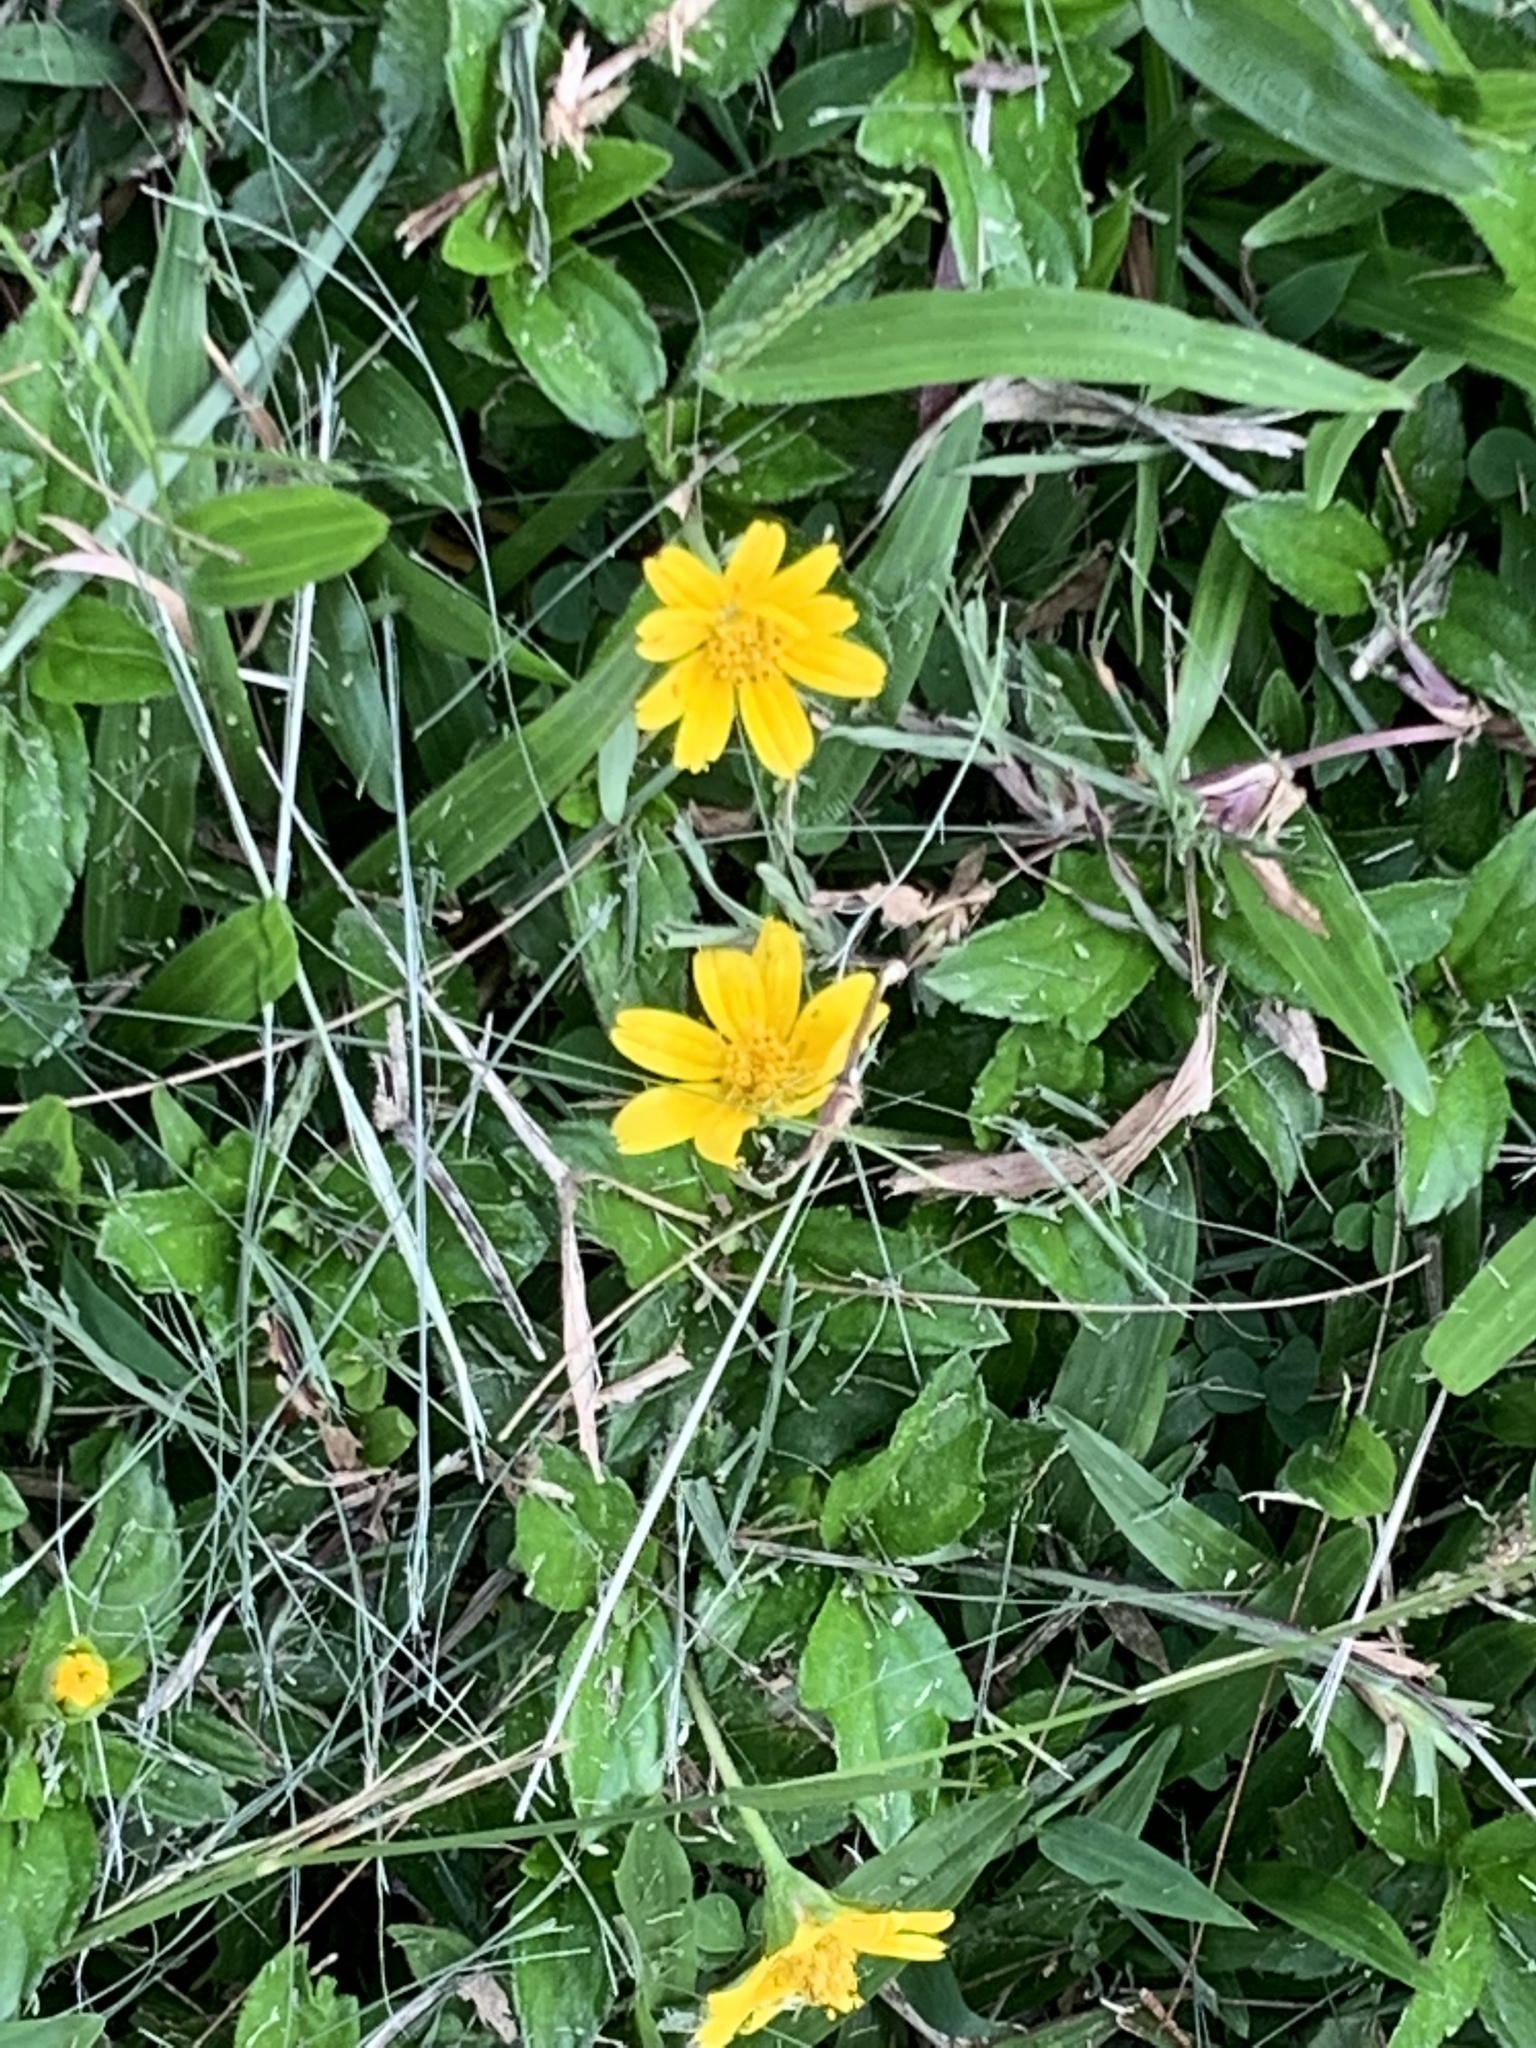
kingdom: Plantae
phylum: Tracheophyta
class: Magnoliopsida
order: Asterales
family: Asteraceae
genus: Sphagneticola
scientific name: Sphagneticola trilobata
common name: Bay biscayne creeping-oxeye
